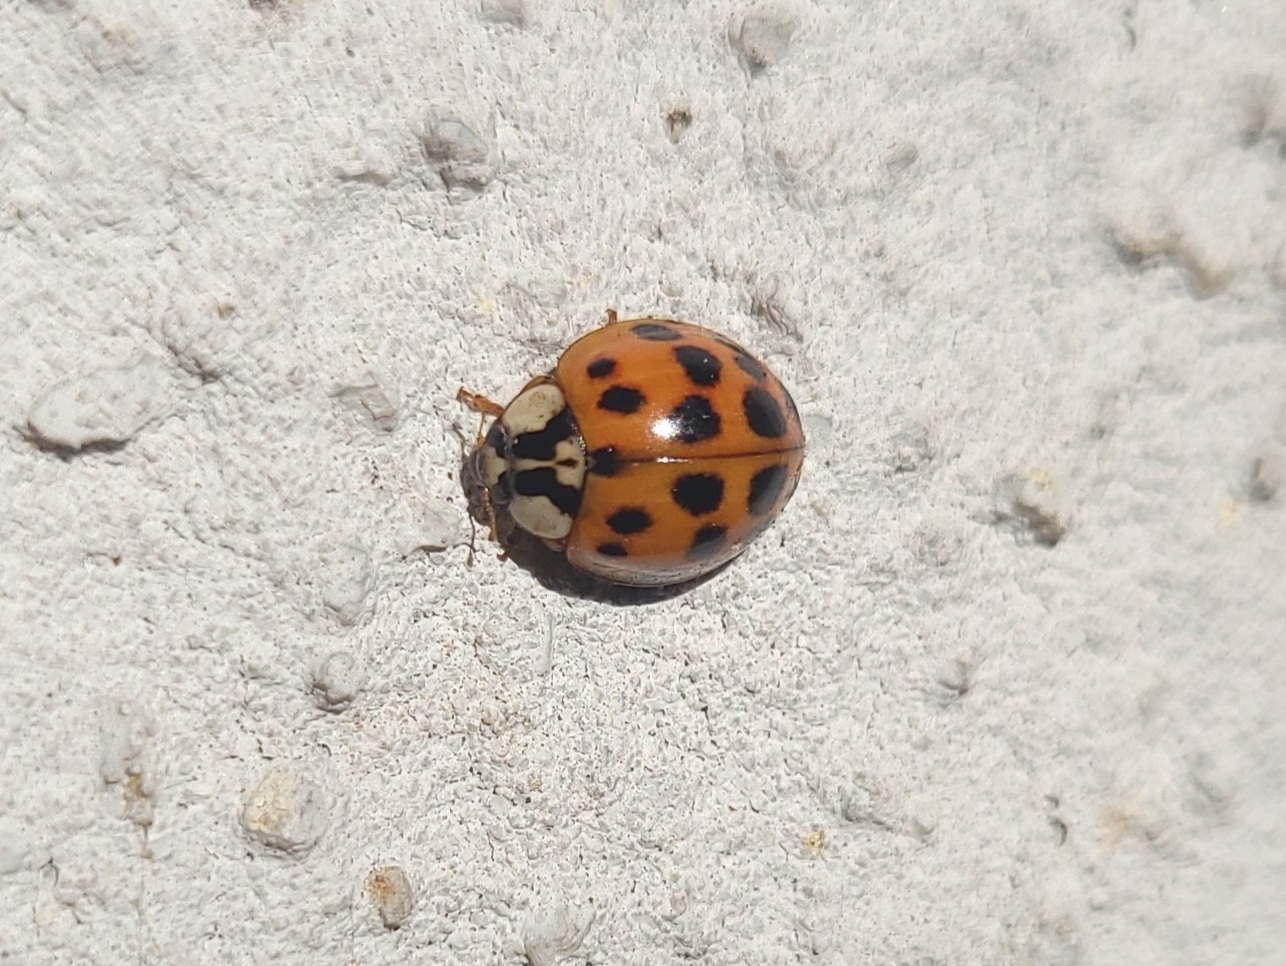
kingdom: Animalia
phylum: Arthropoda
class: Insecta
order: Coleoptera
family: Coccinellidae
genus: Harmonia
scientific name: Harmonia axyridis
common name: Harlequin ladybird
